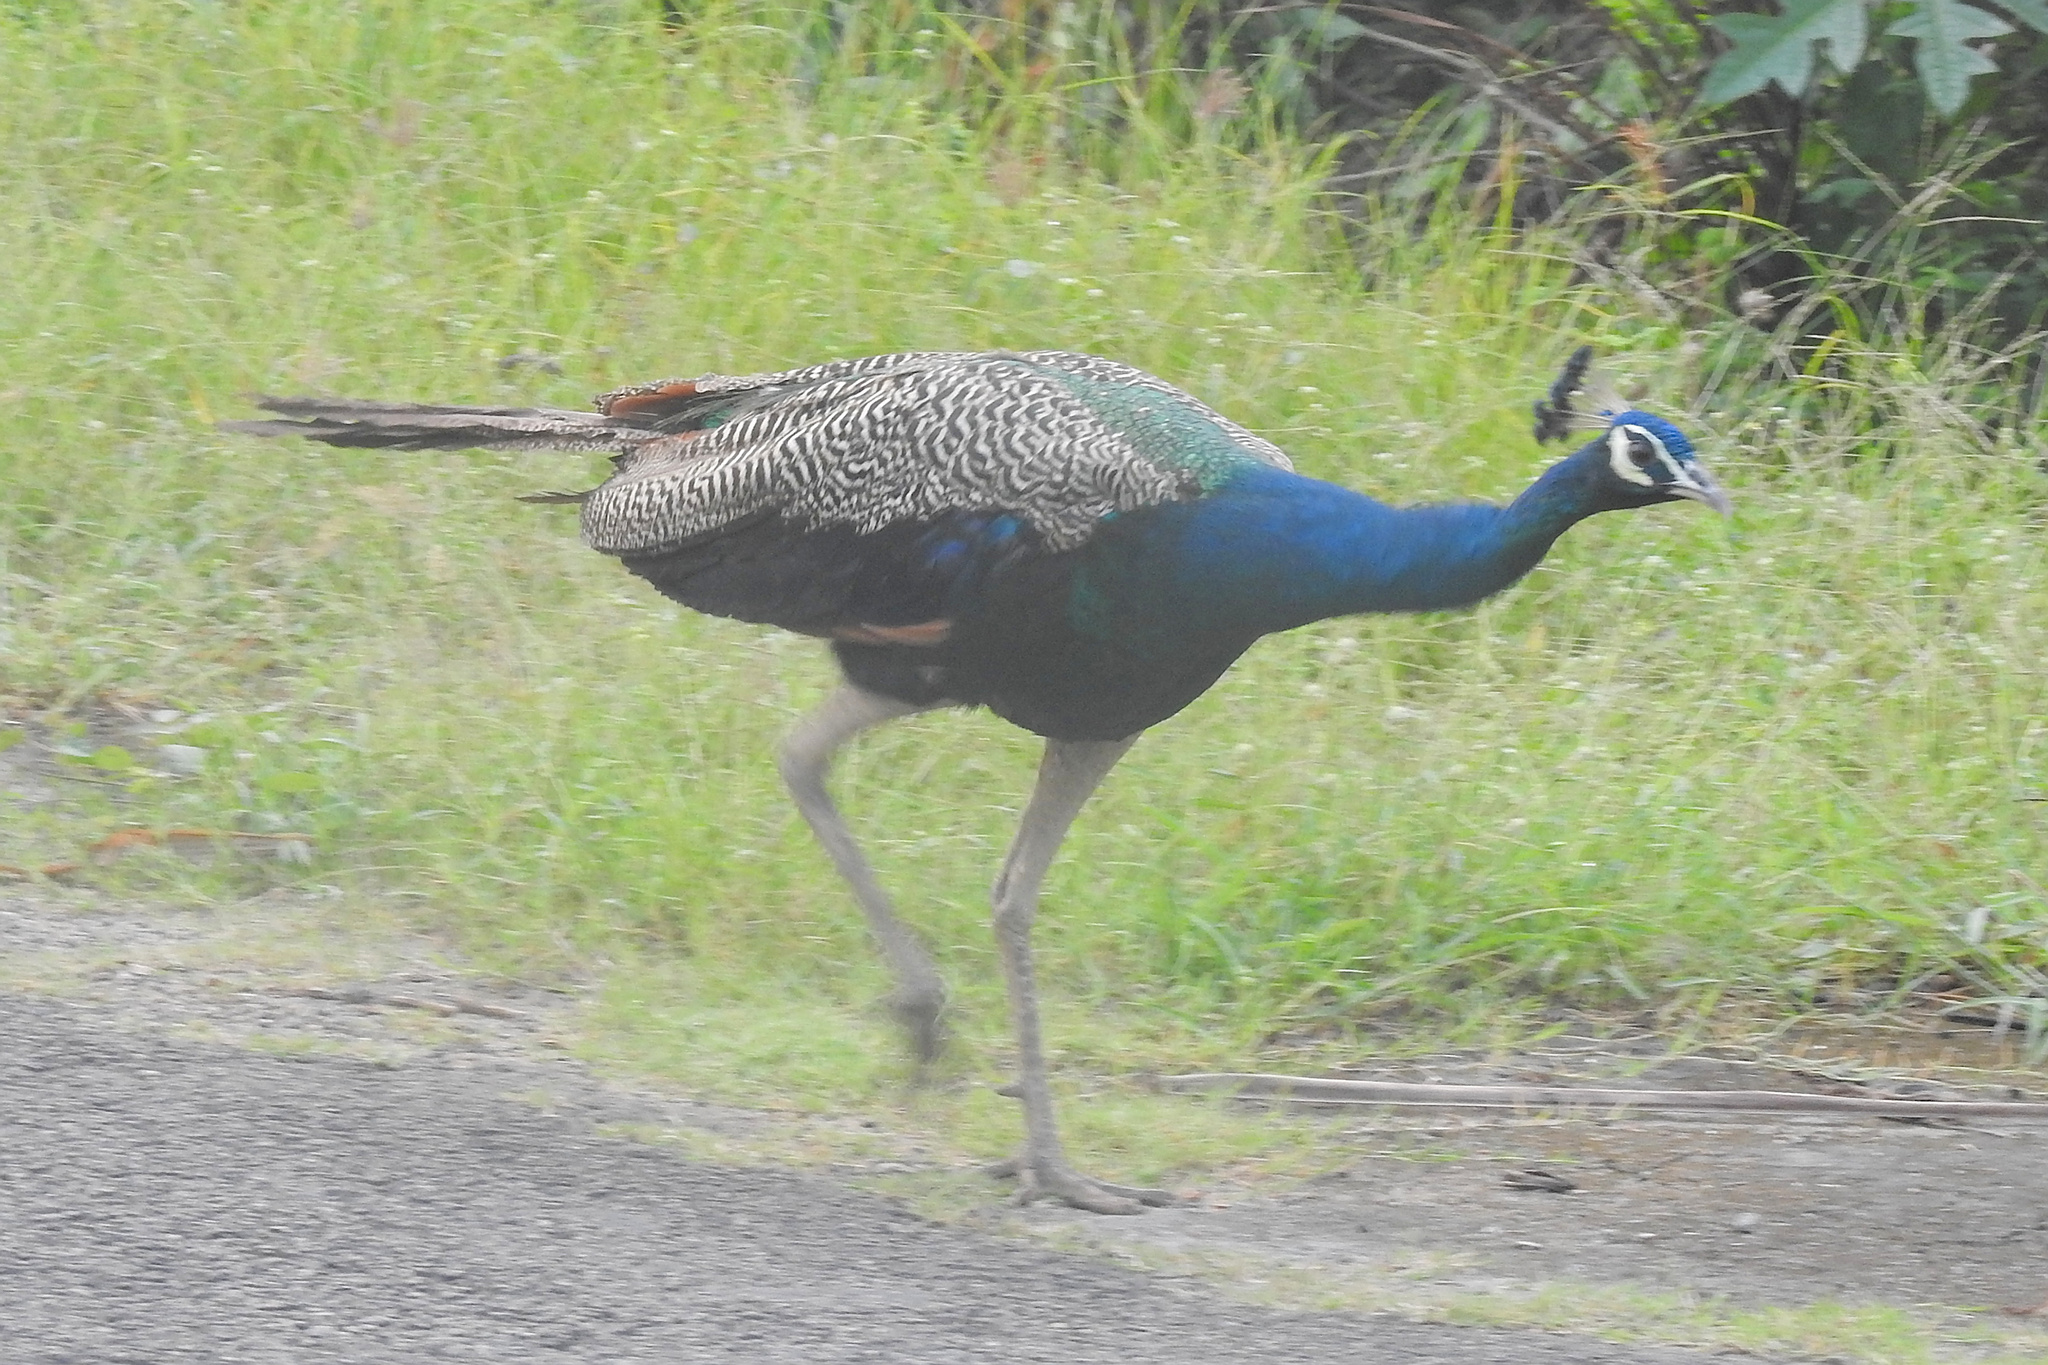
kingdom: Animalia
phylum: Chordata
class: Aves
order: Galliformes
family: Phasianidae
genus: Pavo
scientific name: Pavo cristatus
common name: Indian peafowl
